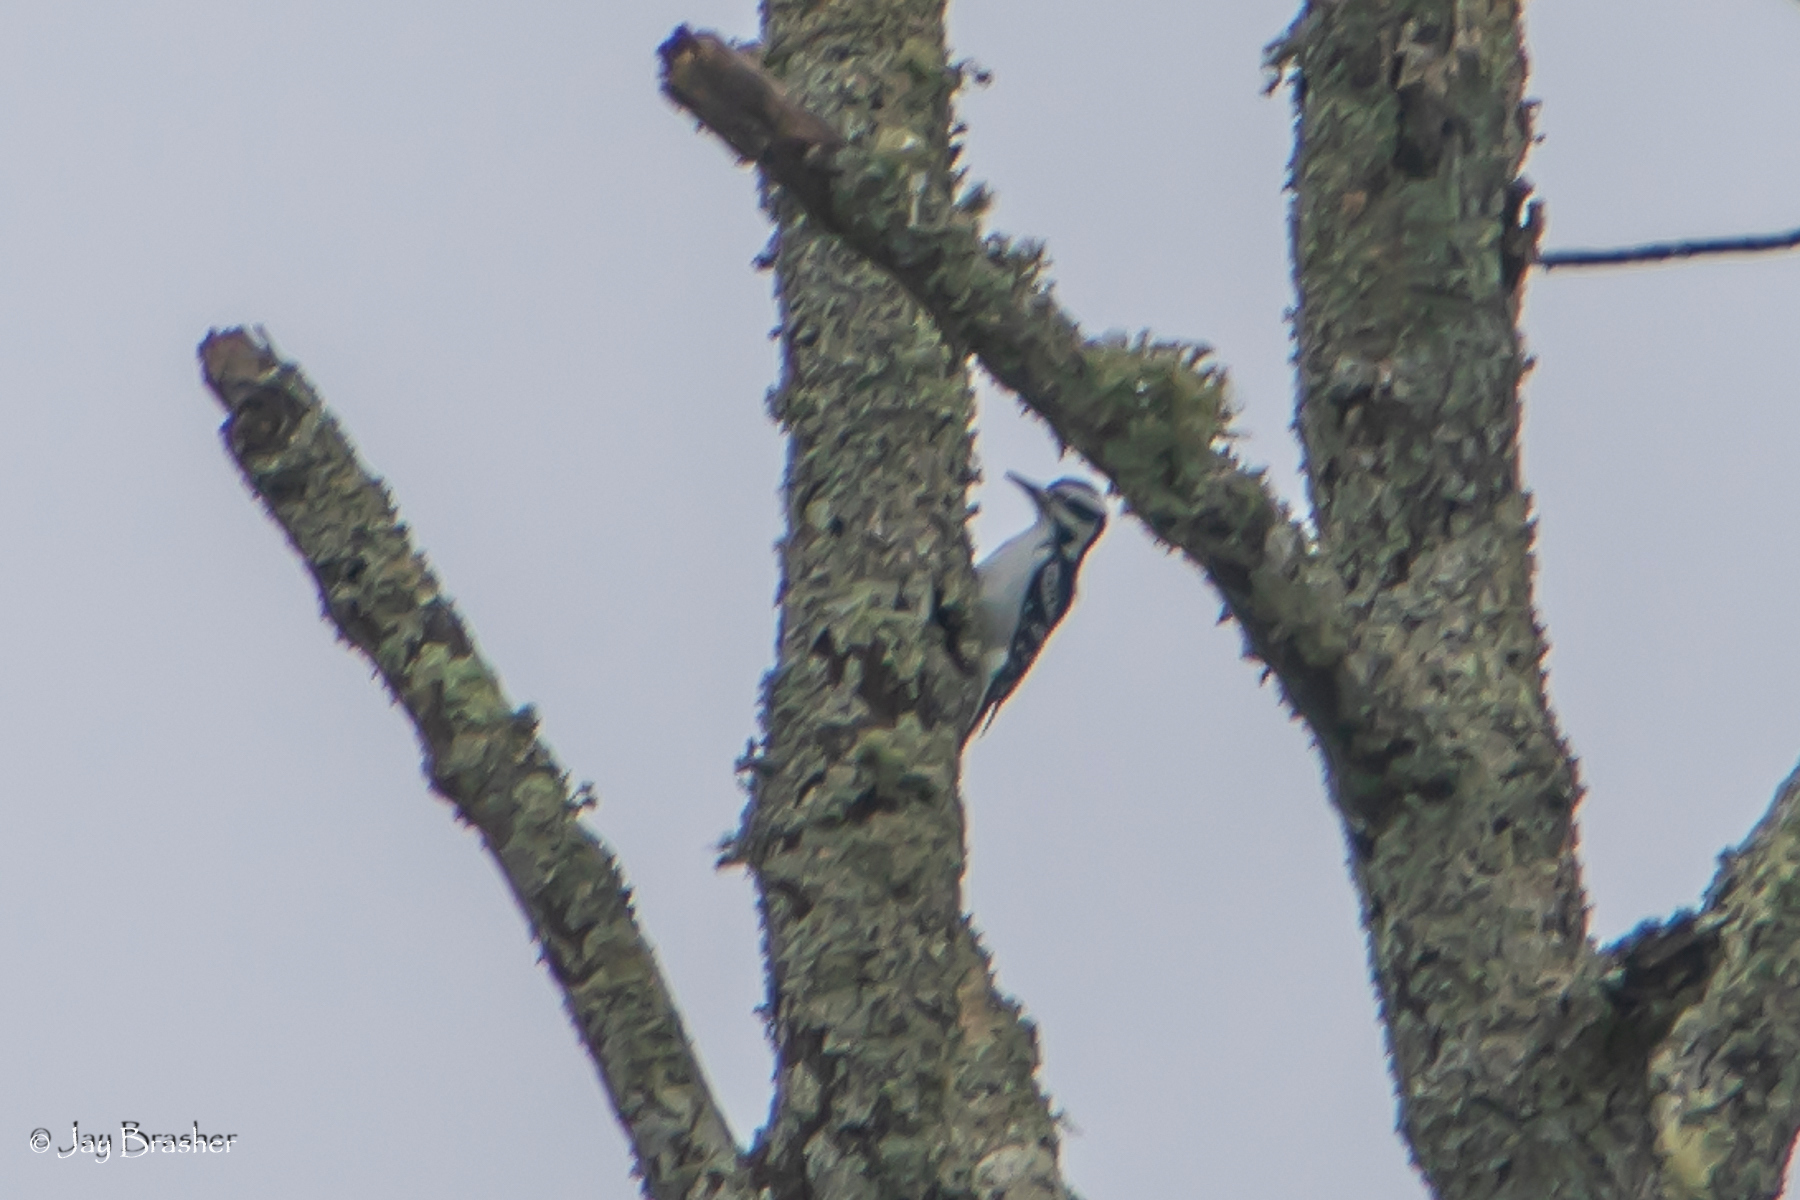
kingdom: Animalia
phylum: Chordata
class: Aves
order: Piciformes
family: Picidae
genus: Leuconotopicus
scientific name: Leuconotopicus villosus
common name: Hairy woodpecker
